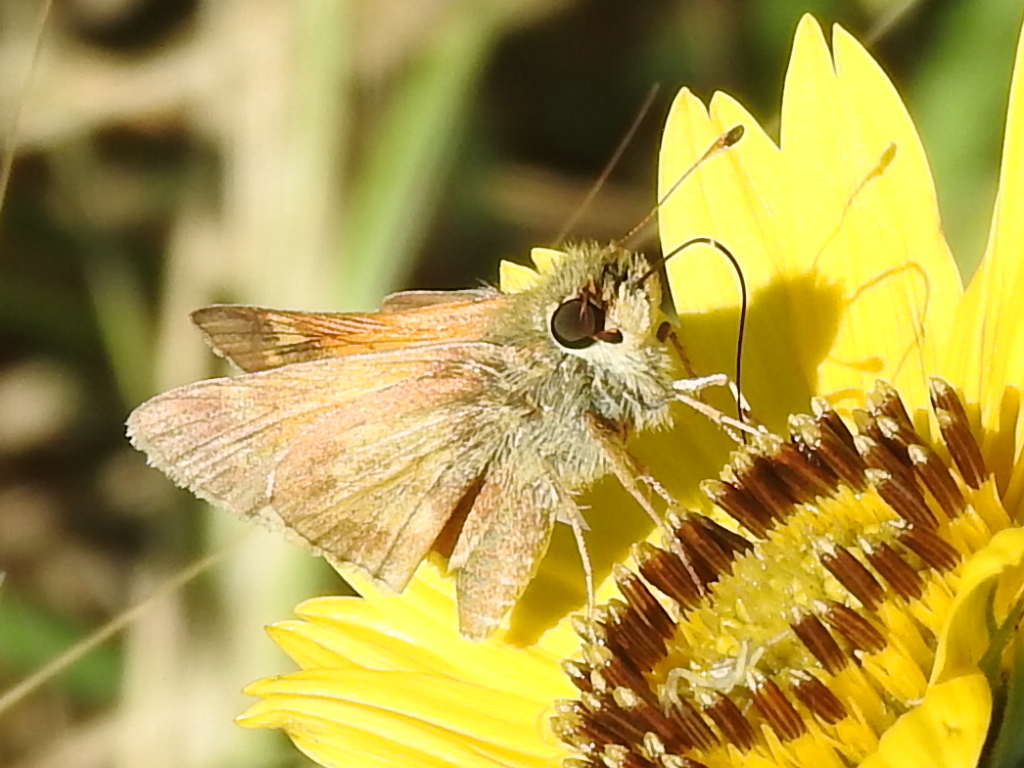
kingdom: Animalia
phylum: Arthropoda
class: Insecta
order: Lepidoptera
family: Hesperiidae
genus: Atalopedes
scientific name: Atalopedes
